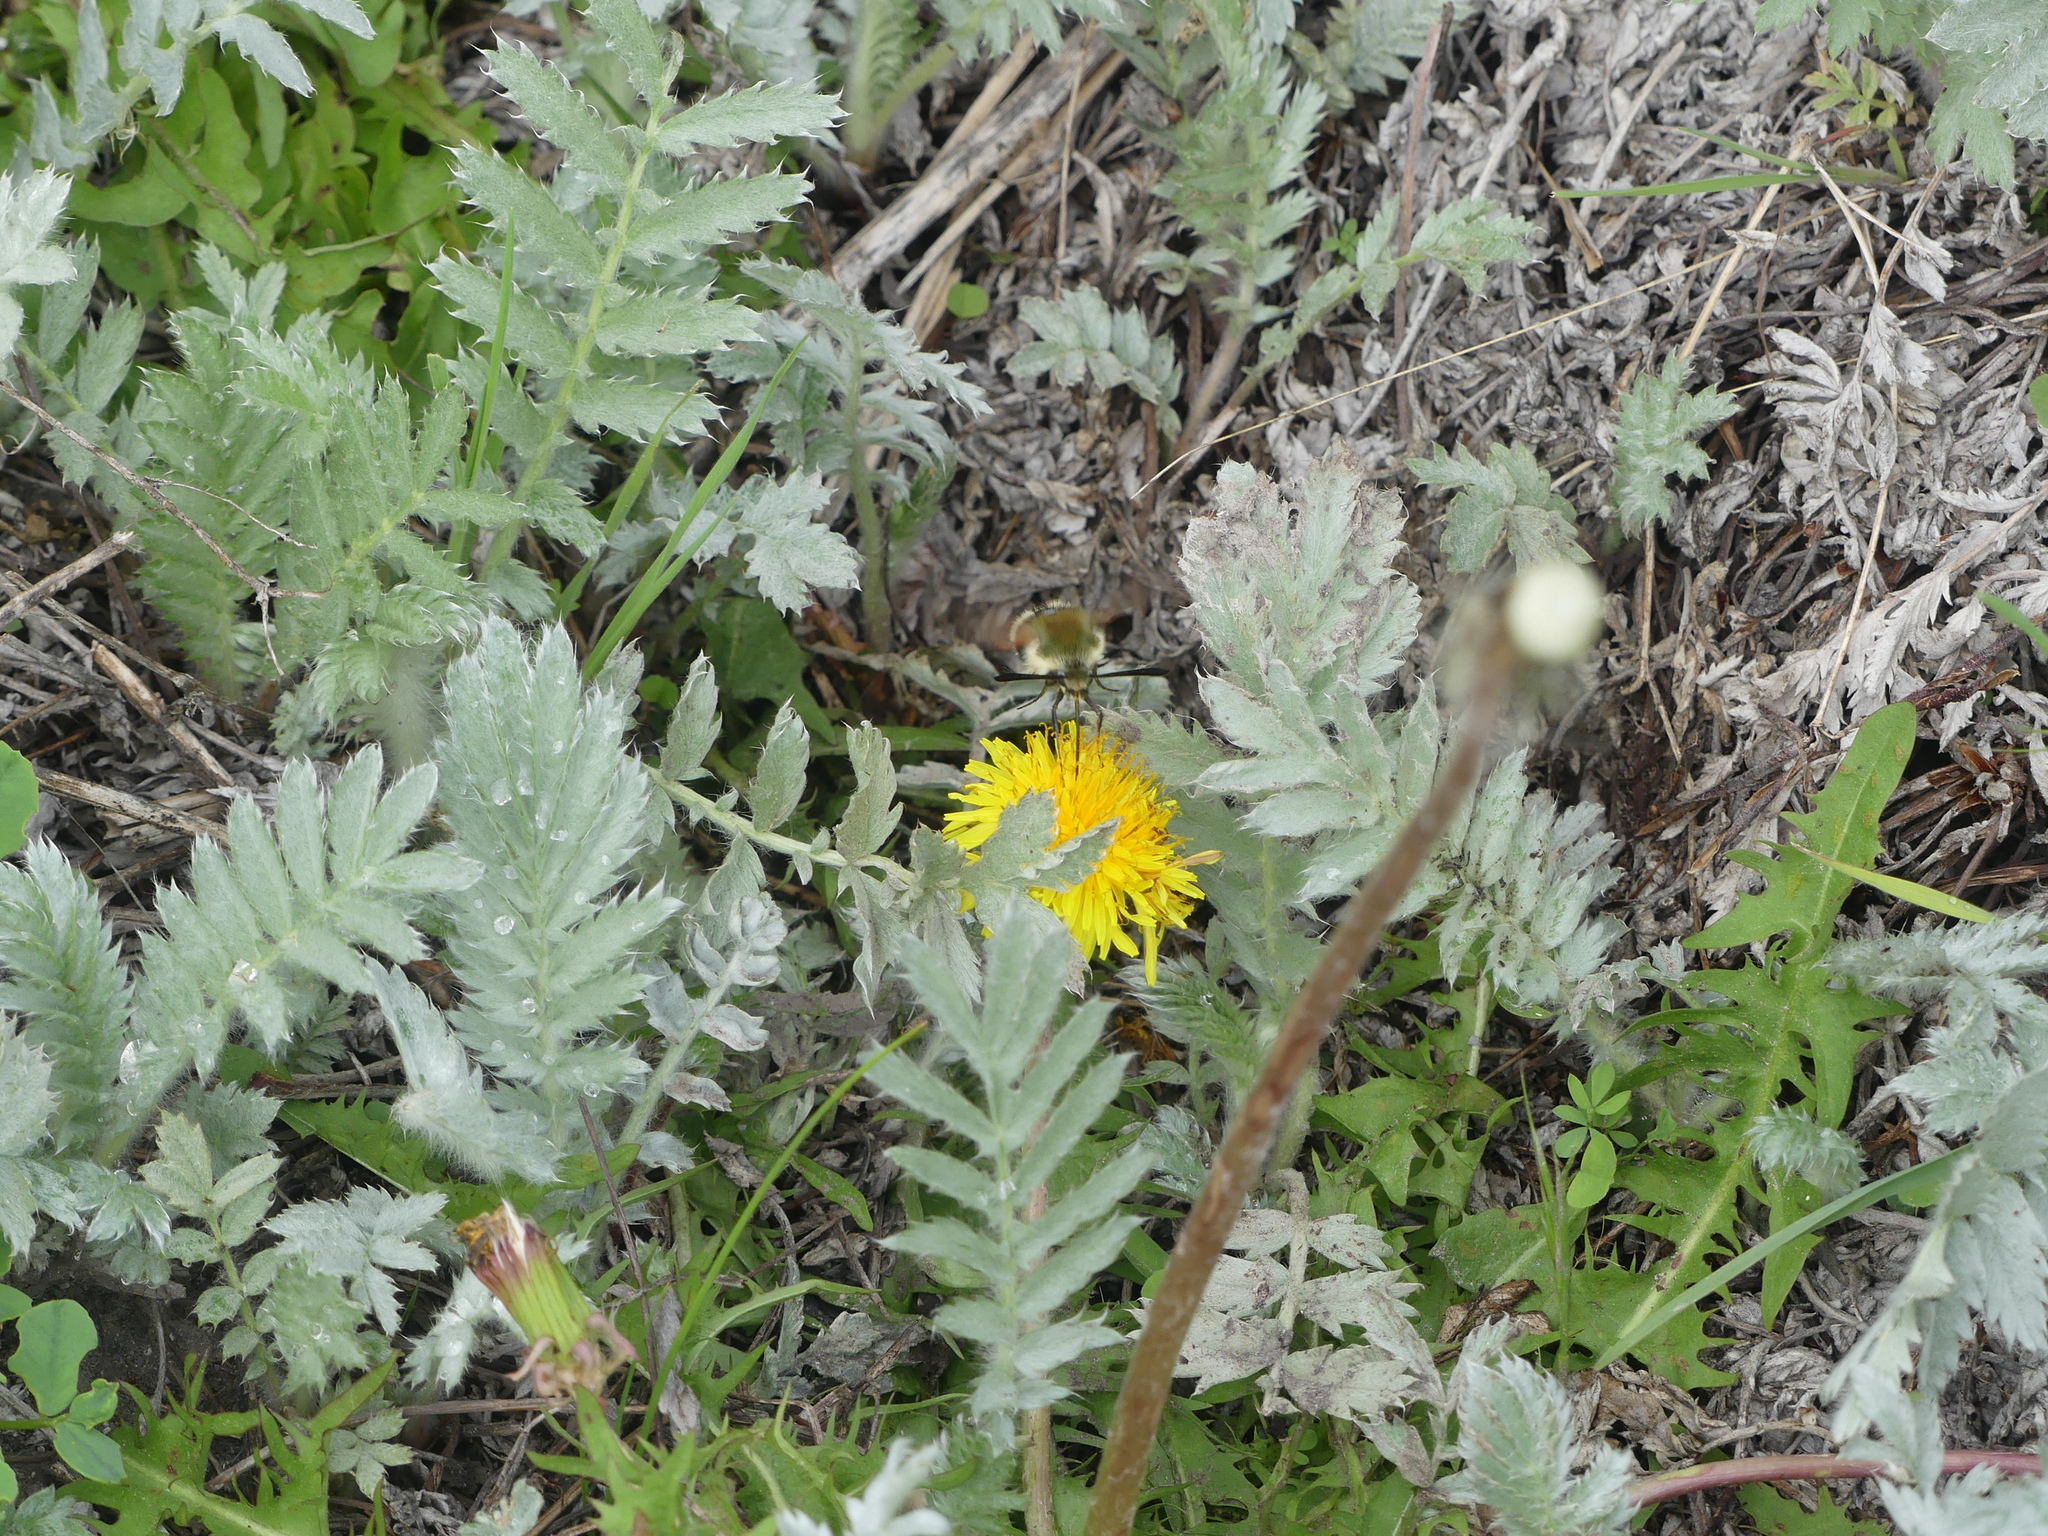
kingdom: Animalia
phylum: Arthropoda
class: Insecta
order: Lepidoptera
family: Sphingidae
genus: Hemaris
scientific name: Hemaris thetis
